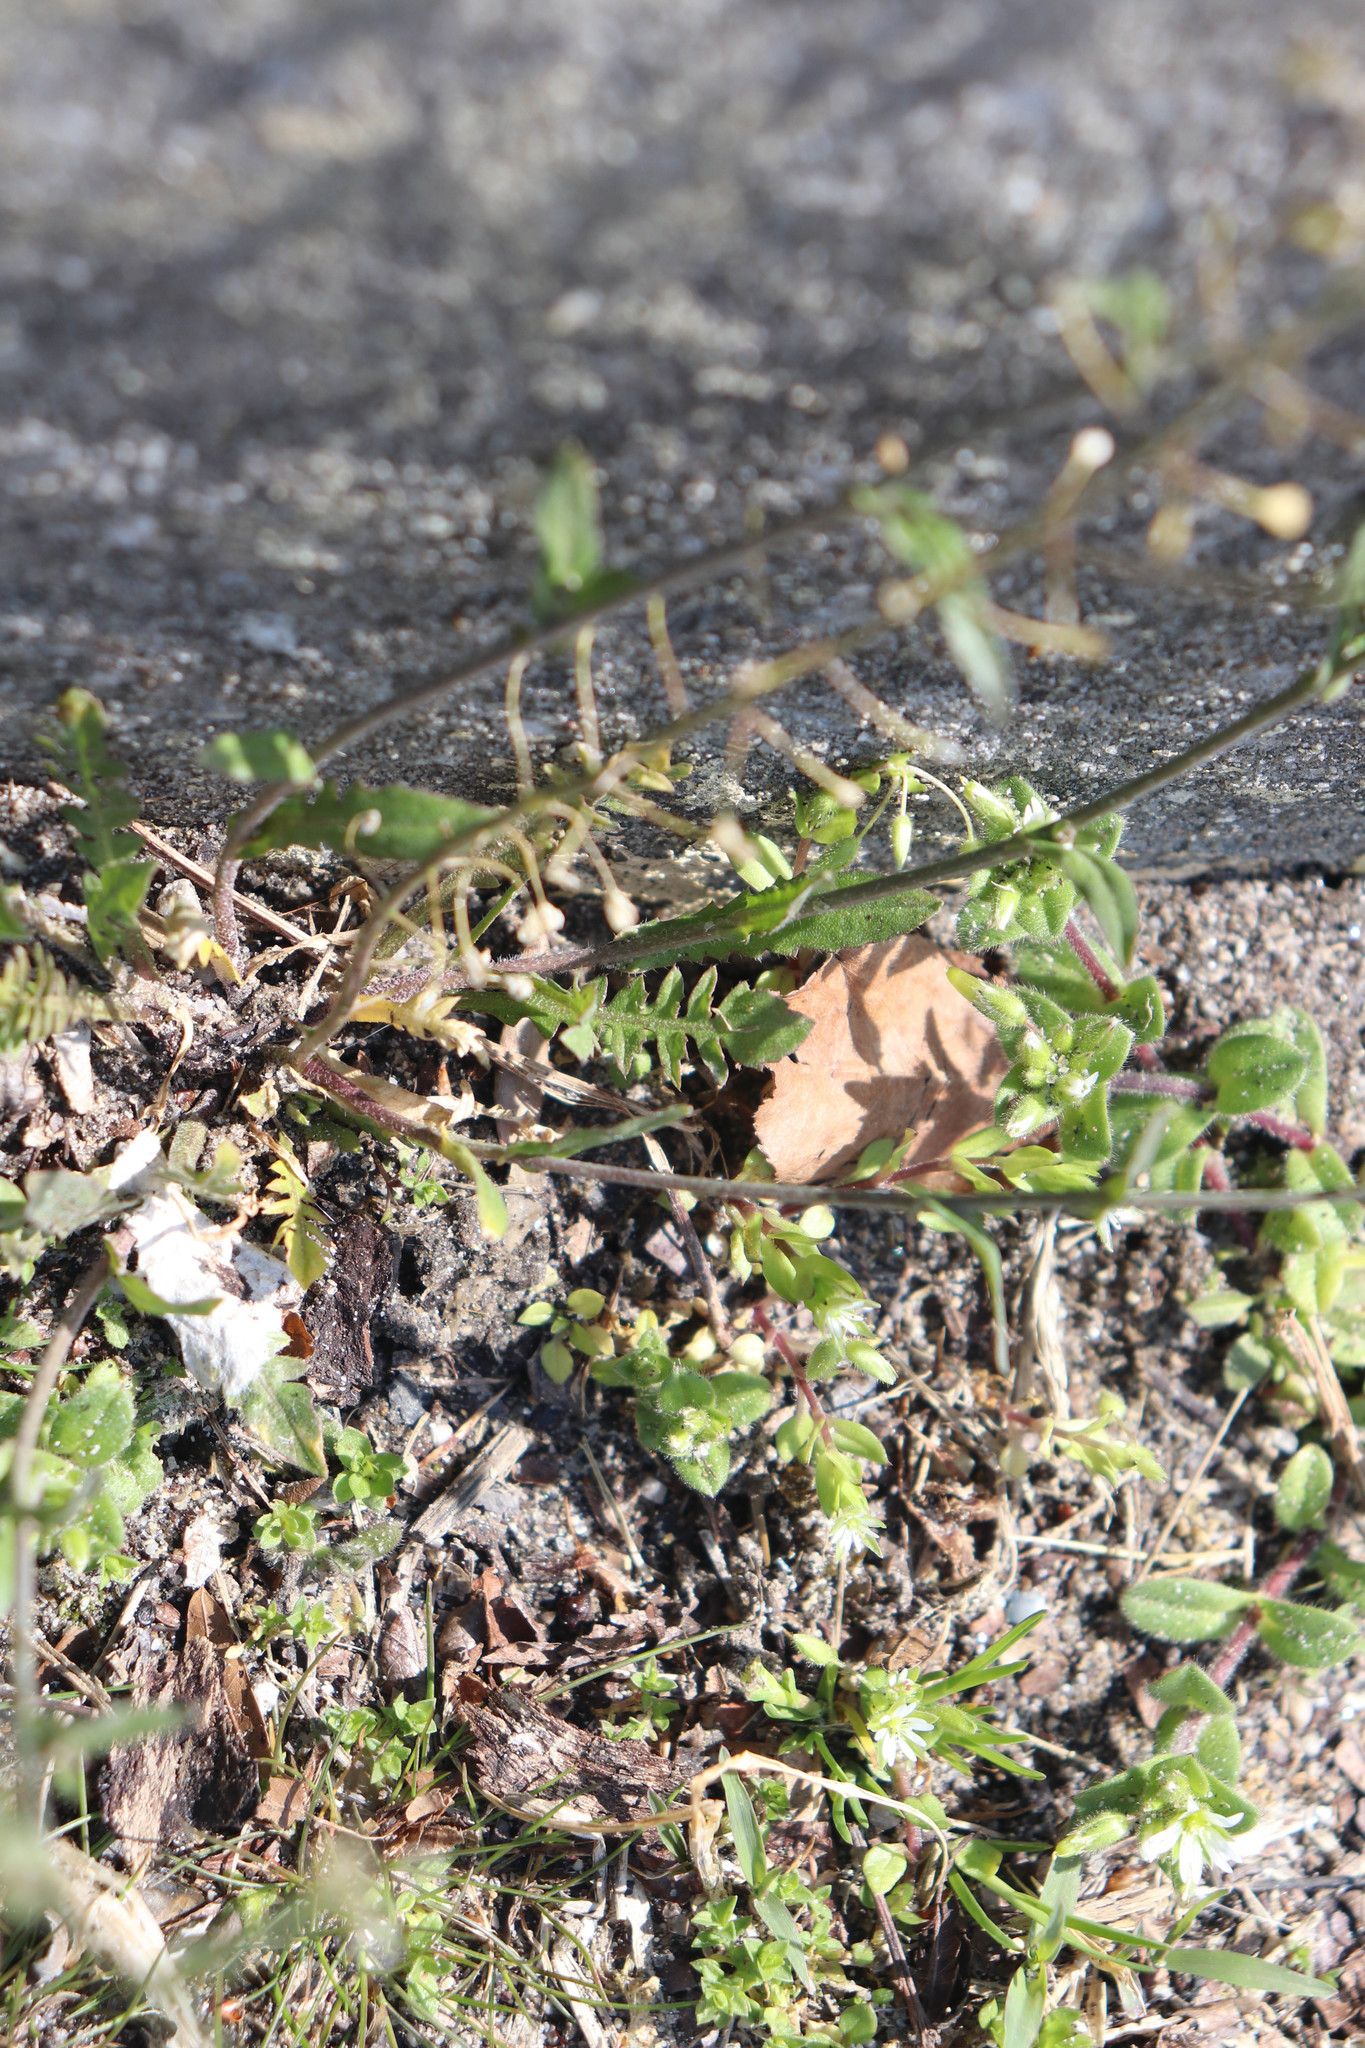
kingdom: Plantae
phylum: Tracheophyta
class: Magnoliopsida
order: Brassicales
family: Brassicaceae
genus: Capsella
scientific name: Capsella bursa-pastoris
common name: Shepherd's purse
